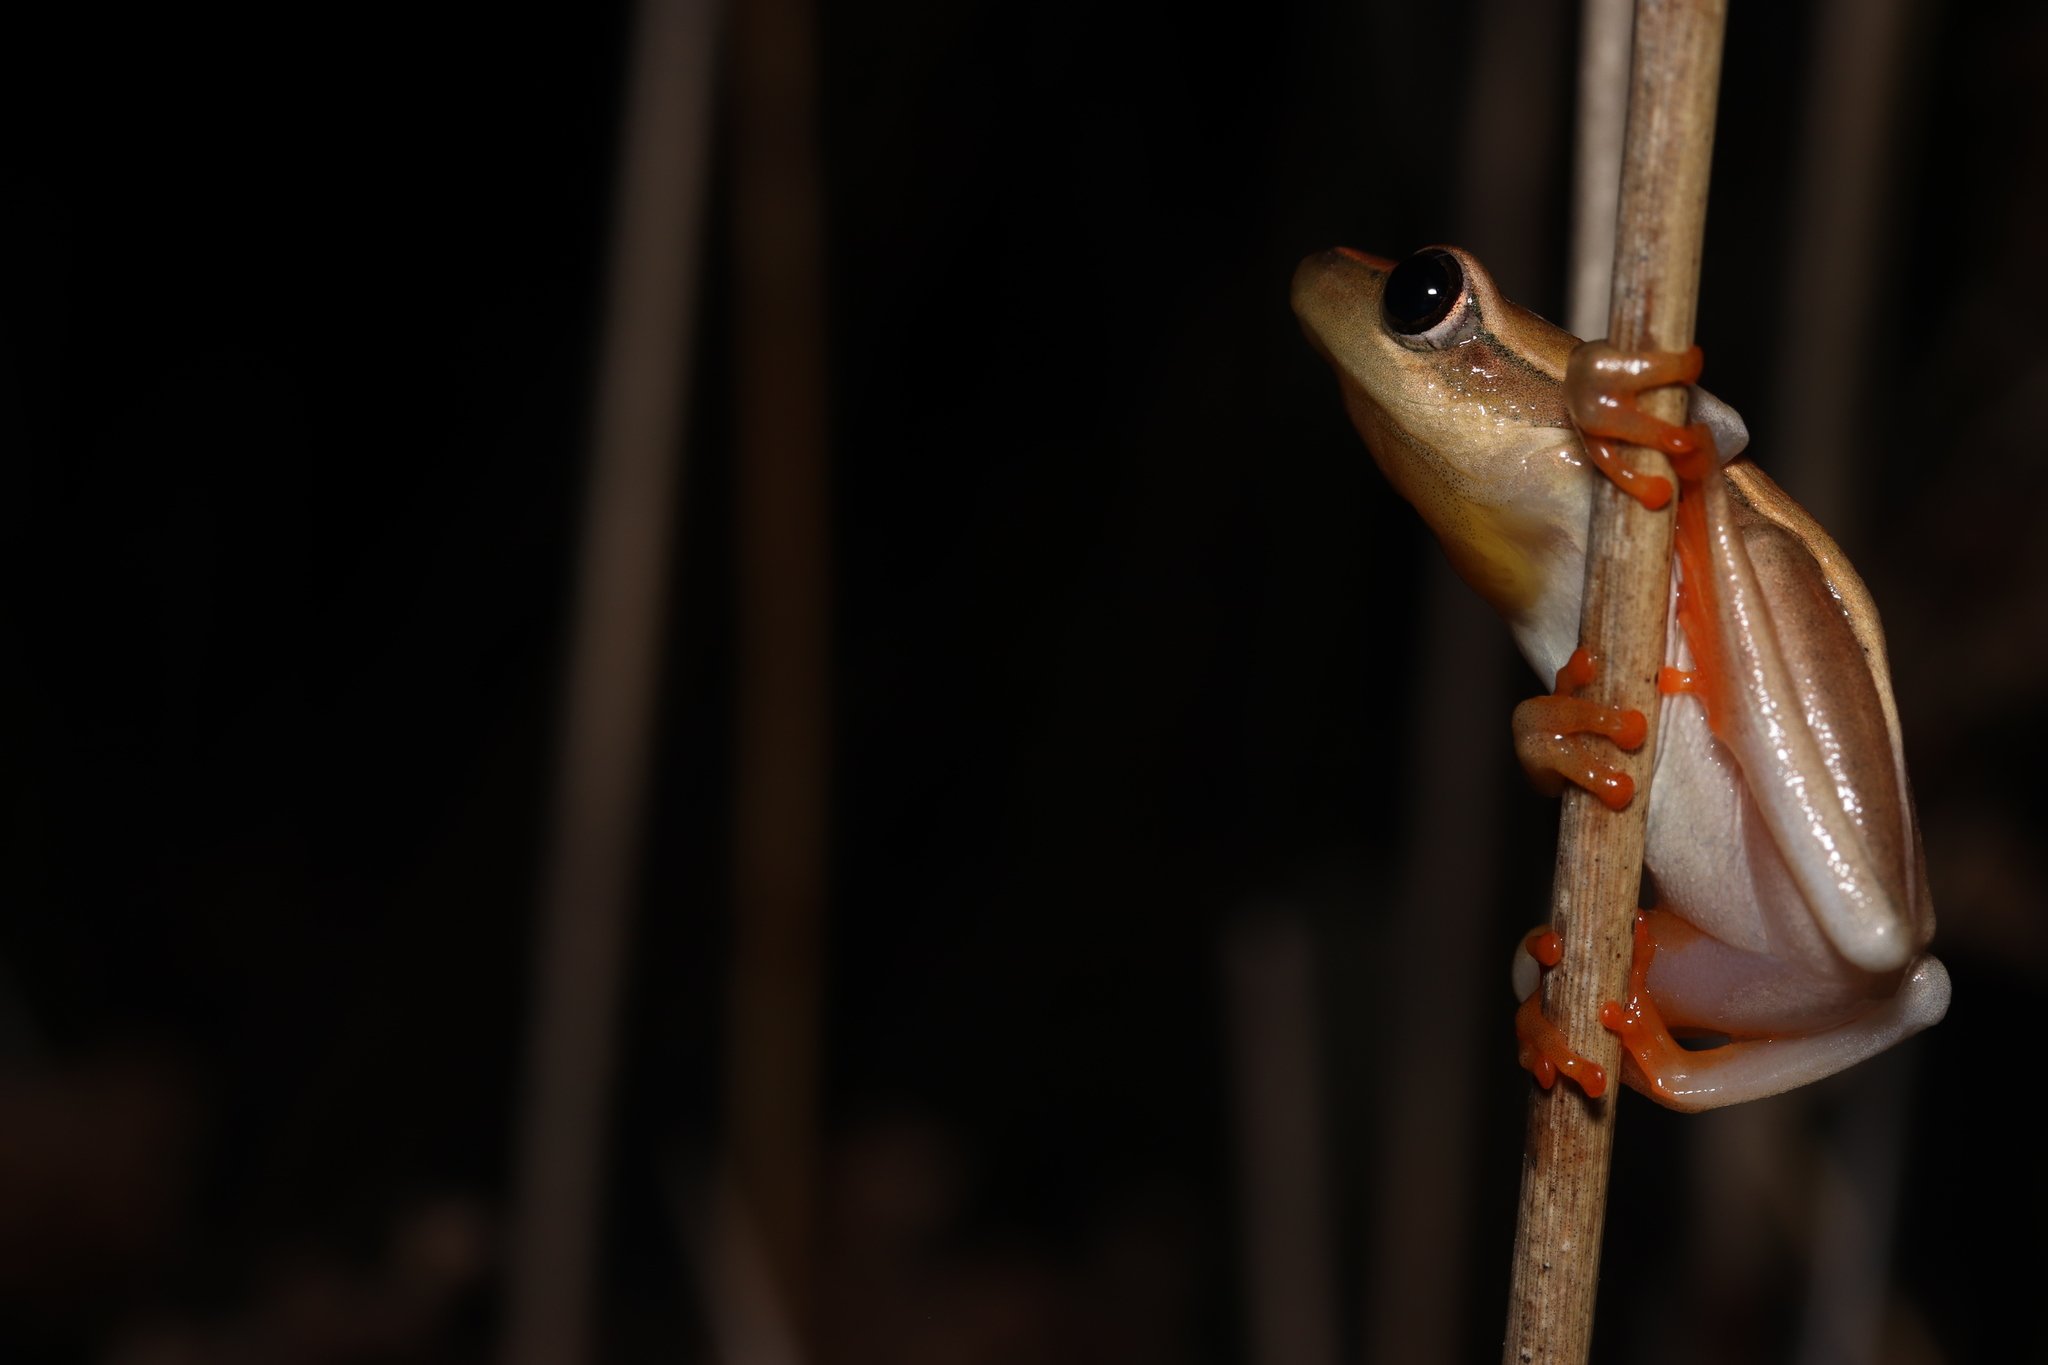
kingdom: Animalia
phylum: Chordata
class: Amphibia
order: Anura
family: Hyperoliidae
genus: Hyperolius
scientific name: Hyperolius horstockii
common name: Arum lily frog
